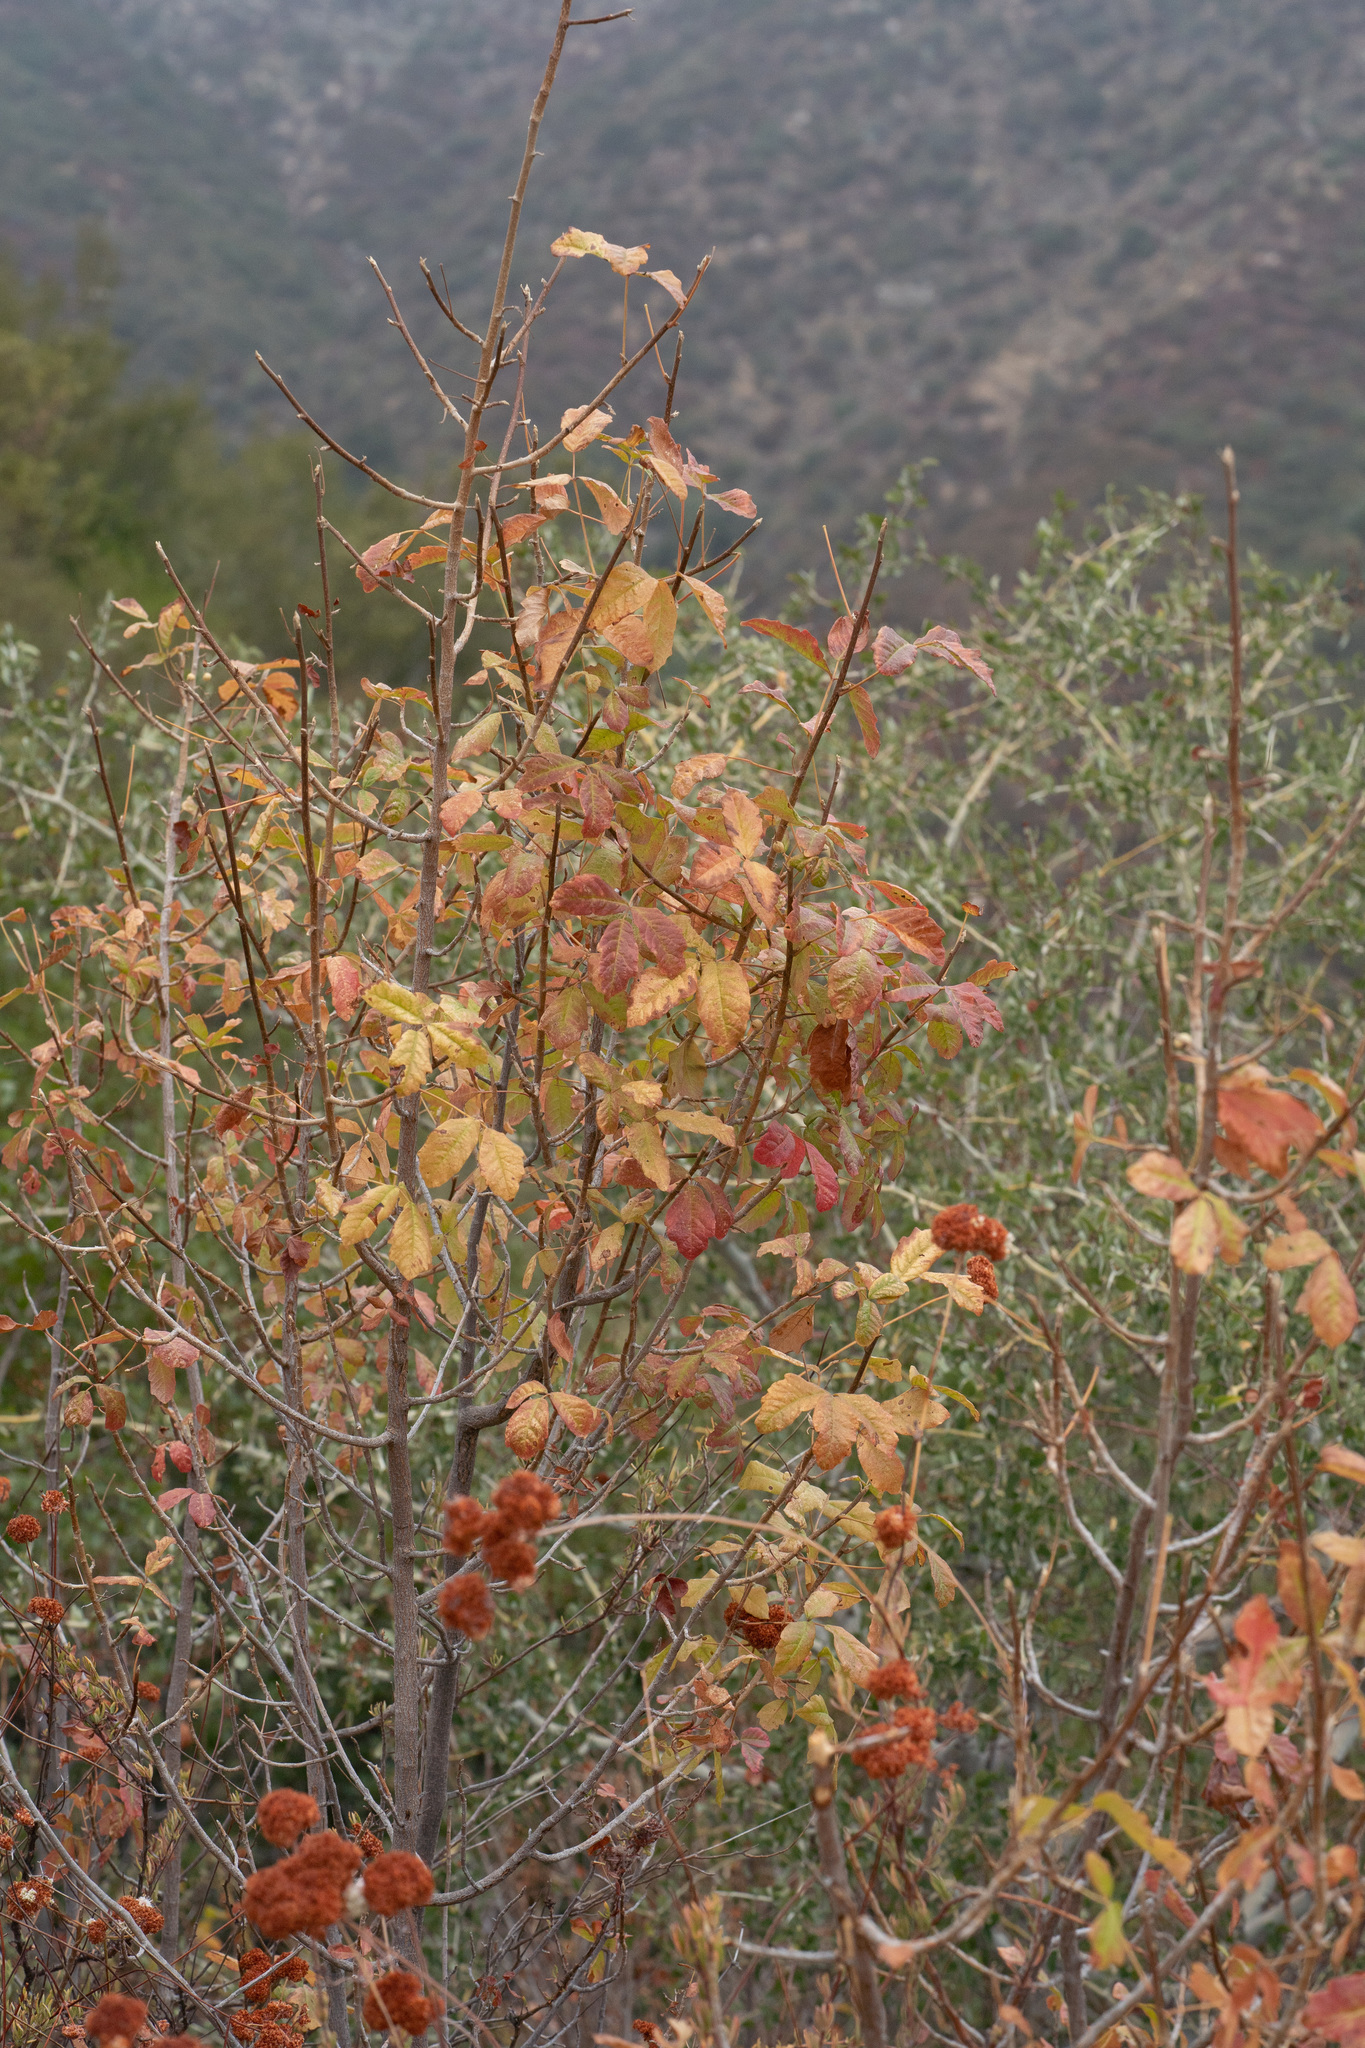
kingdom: Plantae
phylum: Tracheophyta
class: Magnoliopsida
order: Sapindales
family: Anacardiaceae
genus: Toxicodendron
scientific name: Toxicodendron diversilobum
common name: Pacific poison-oak
